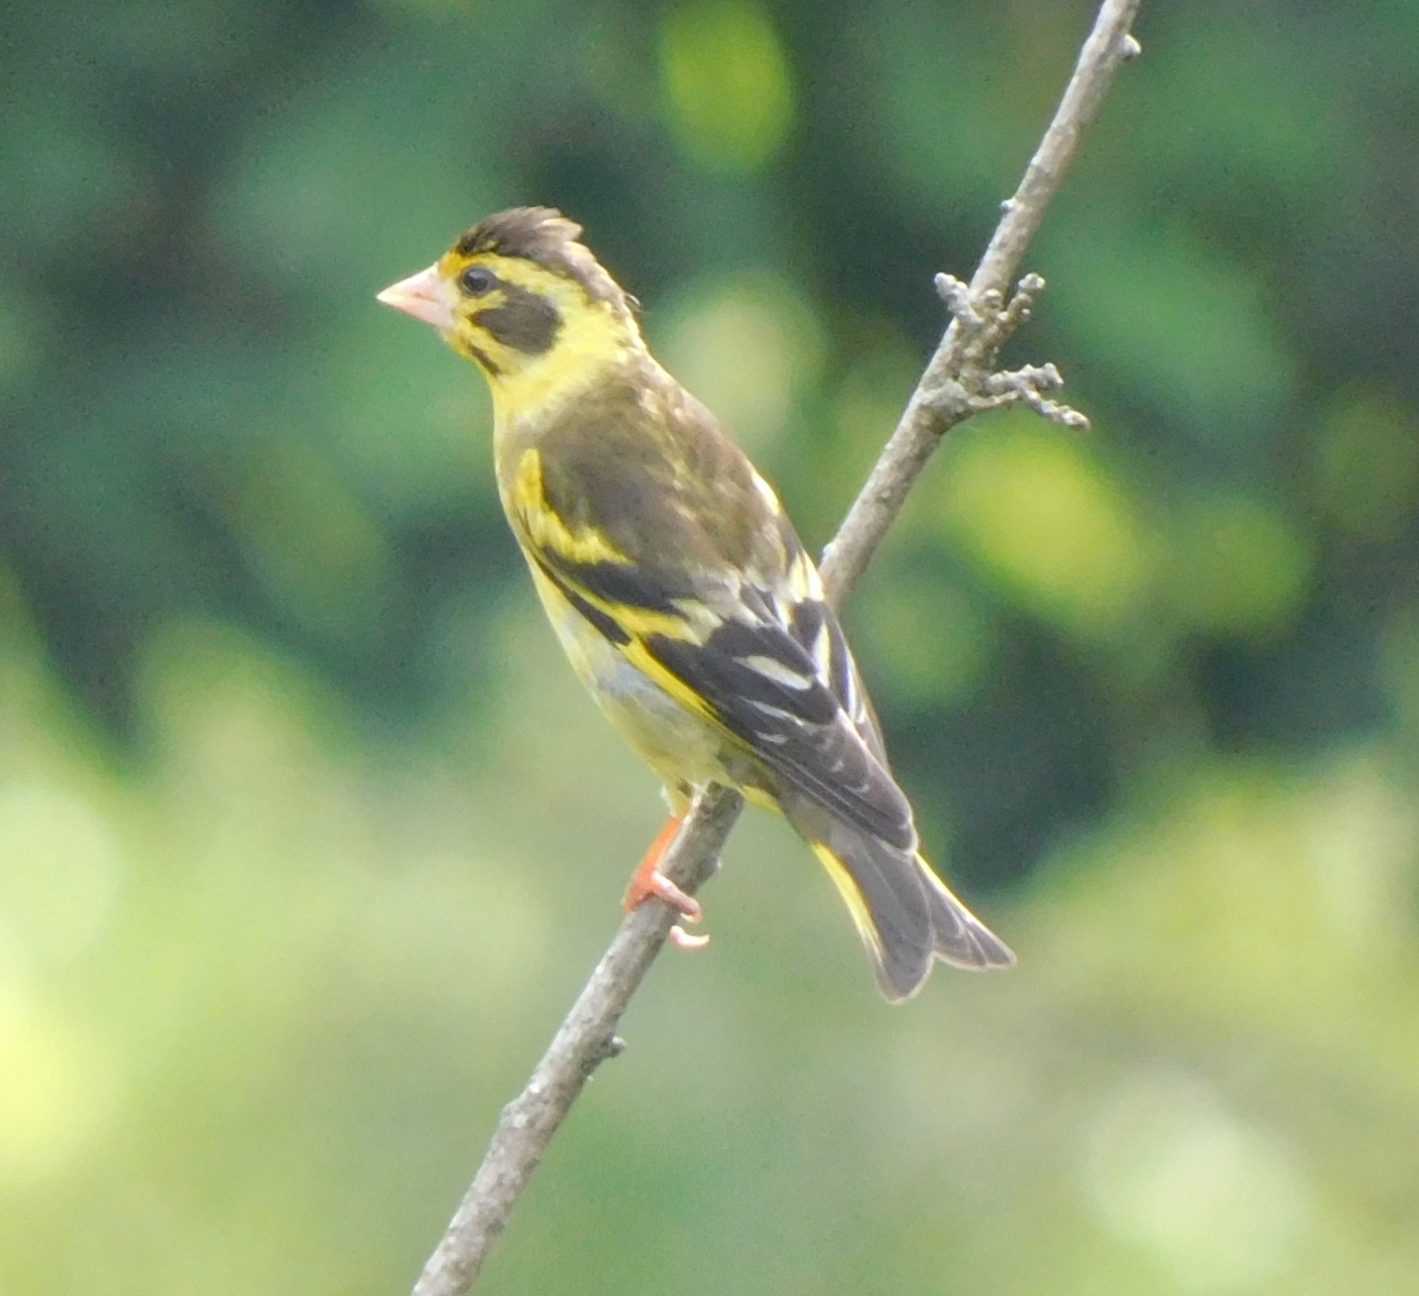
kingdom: Animalia
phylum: Chordata
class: Aves
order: Passeriformes
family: Fringillidae
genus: Chloris
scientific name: Chloris spinoides
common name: Yellow-breasted greenfinch
